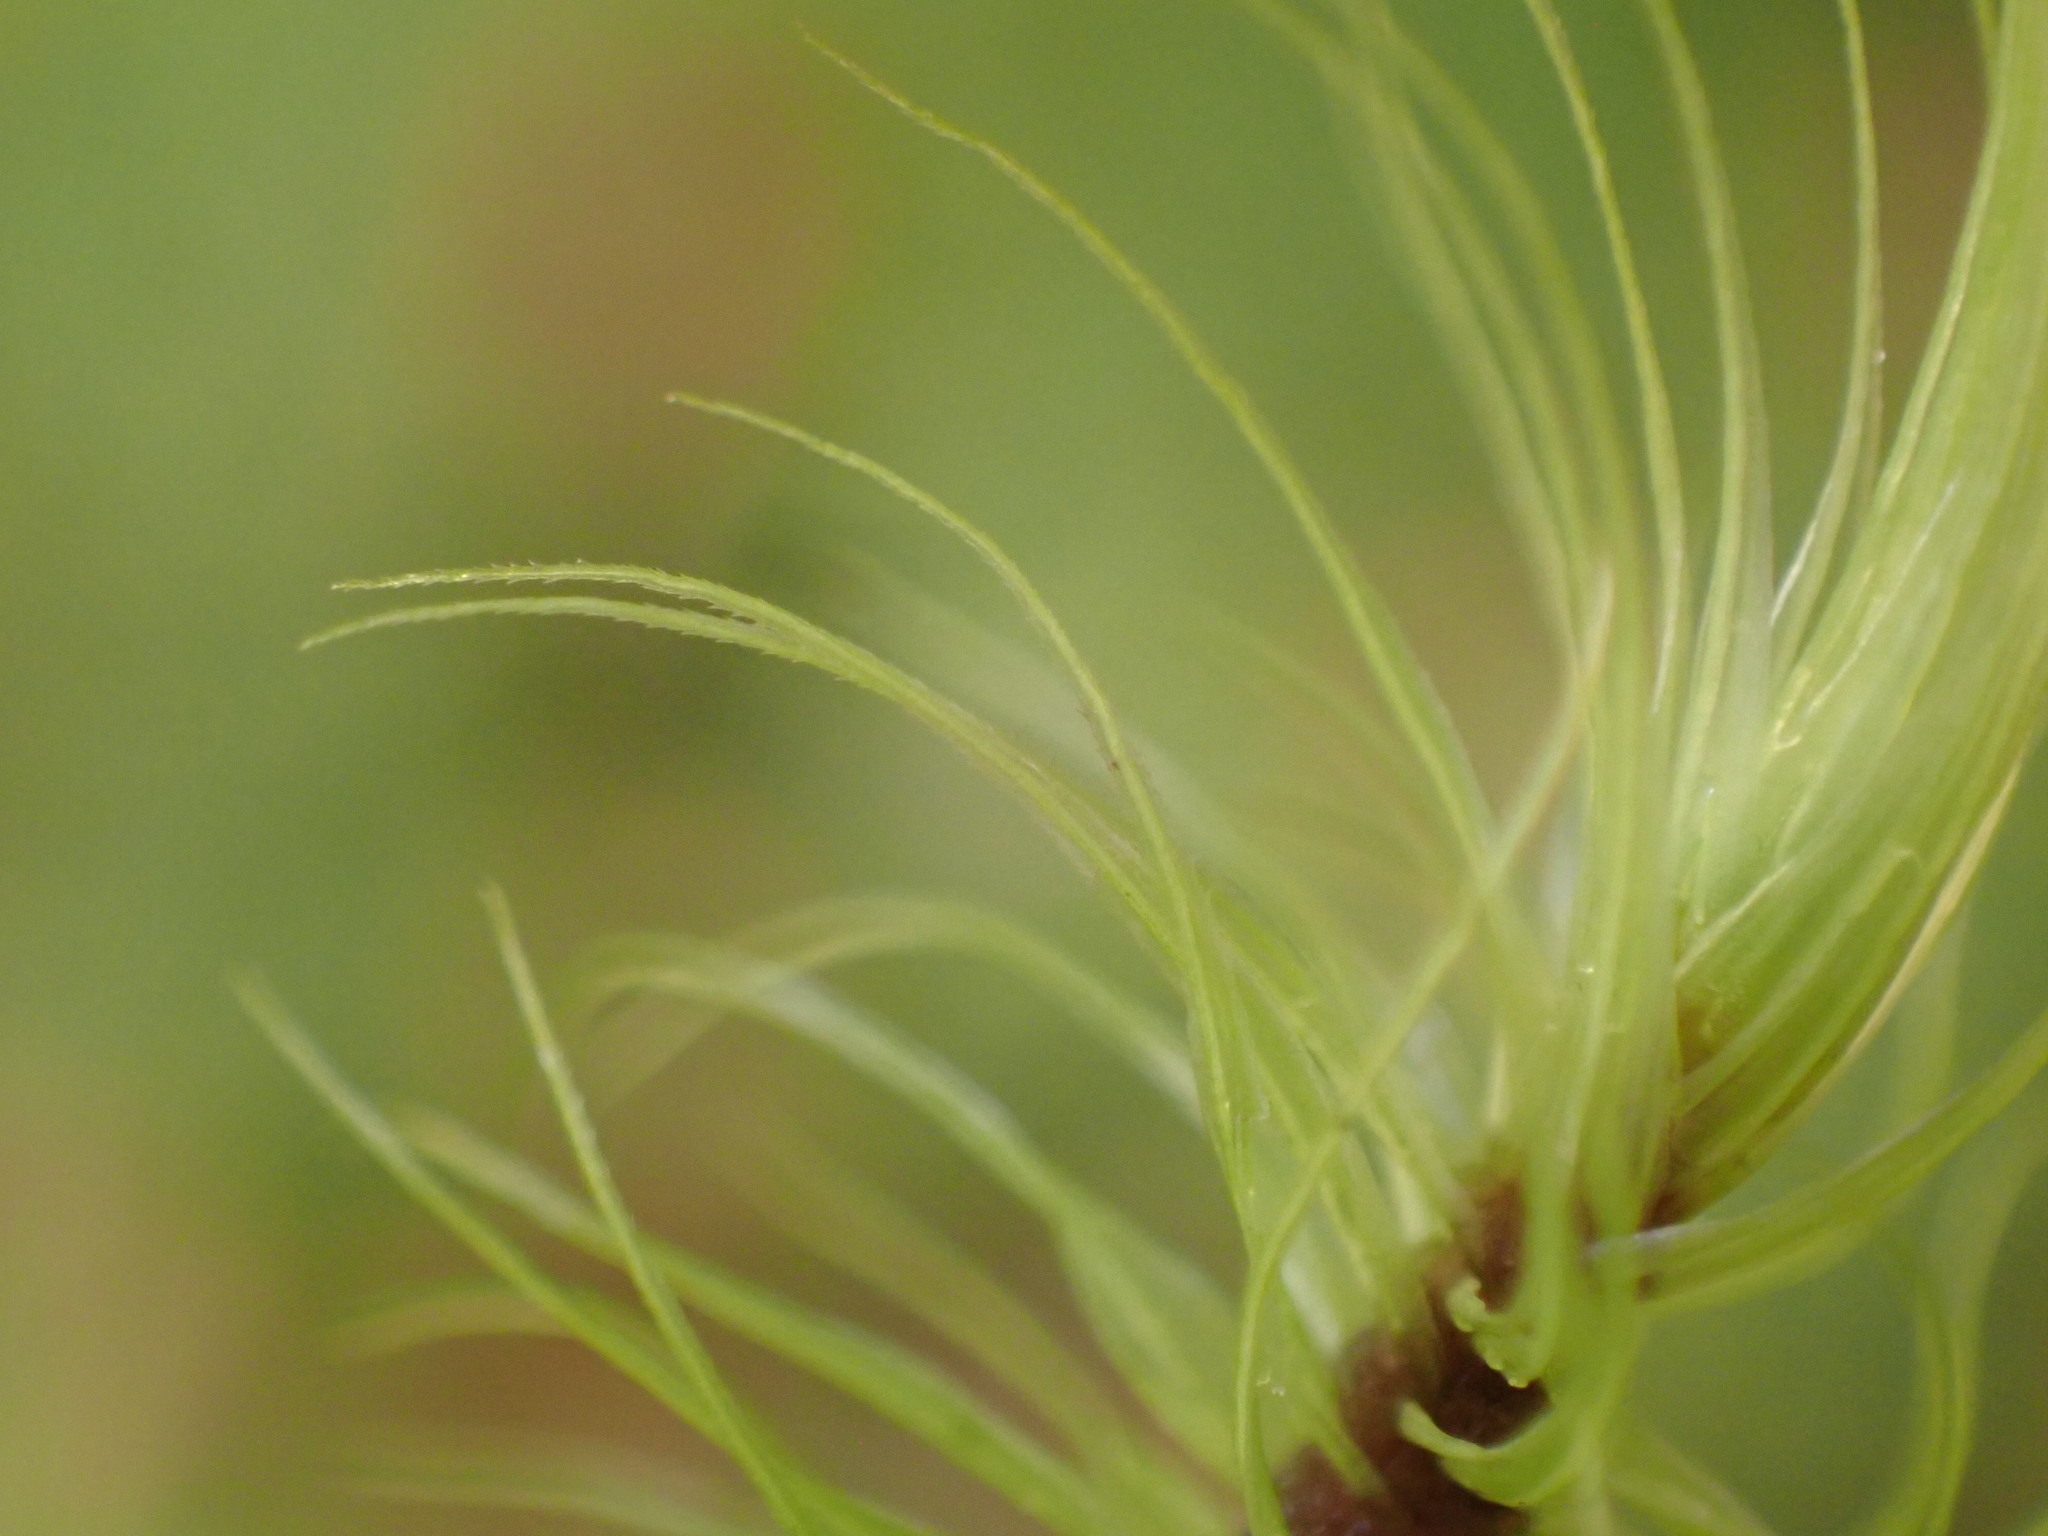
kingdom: Plantae
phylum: Bryophyta
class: Bryopsida
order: Dicranales
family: Dicranaceae
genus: Dicranoloma
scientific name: Dicranoloma dicarpon
